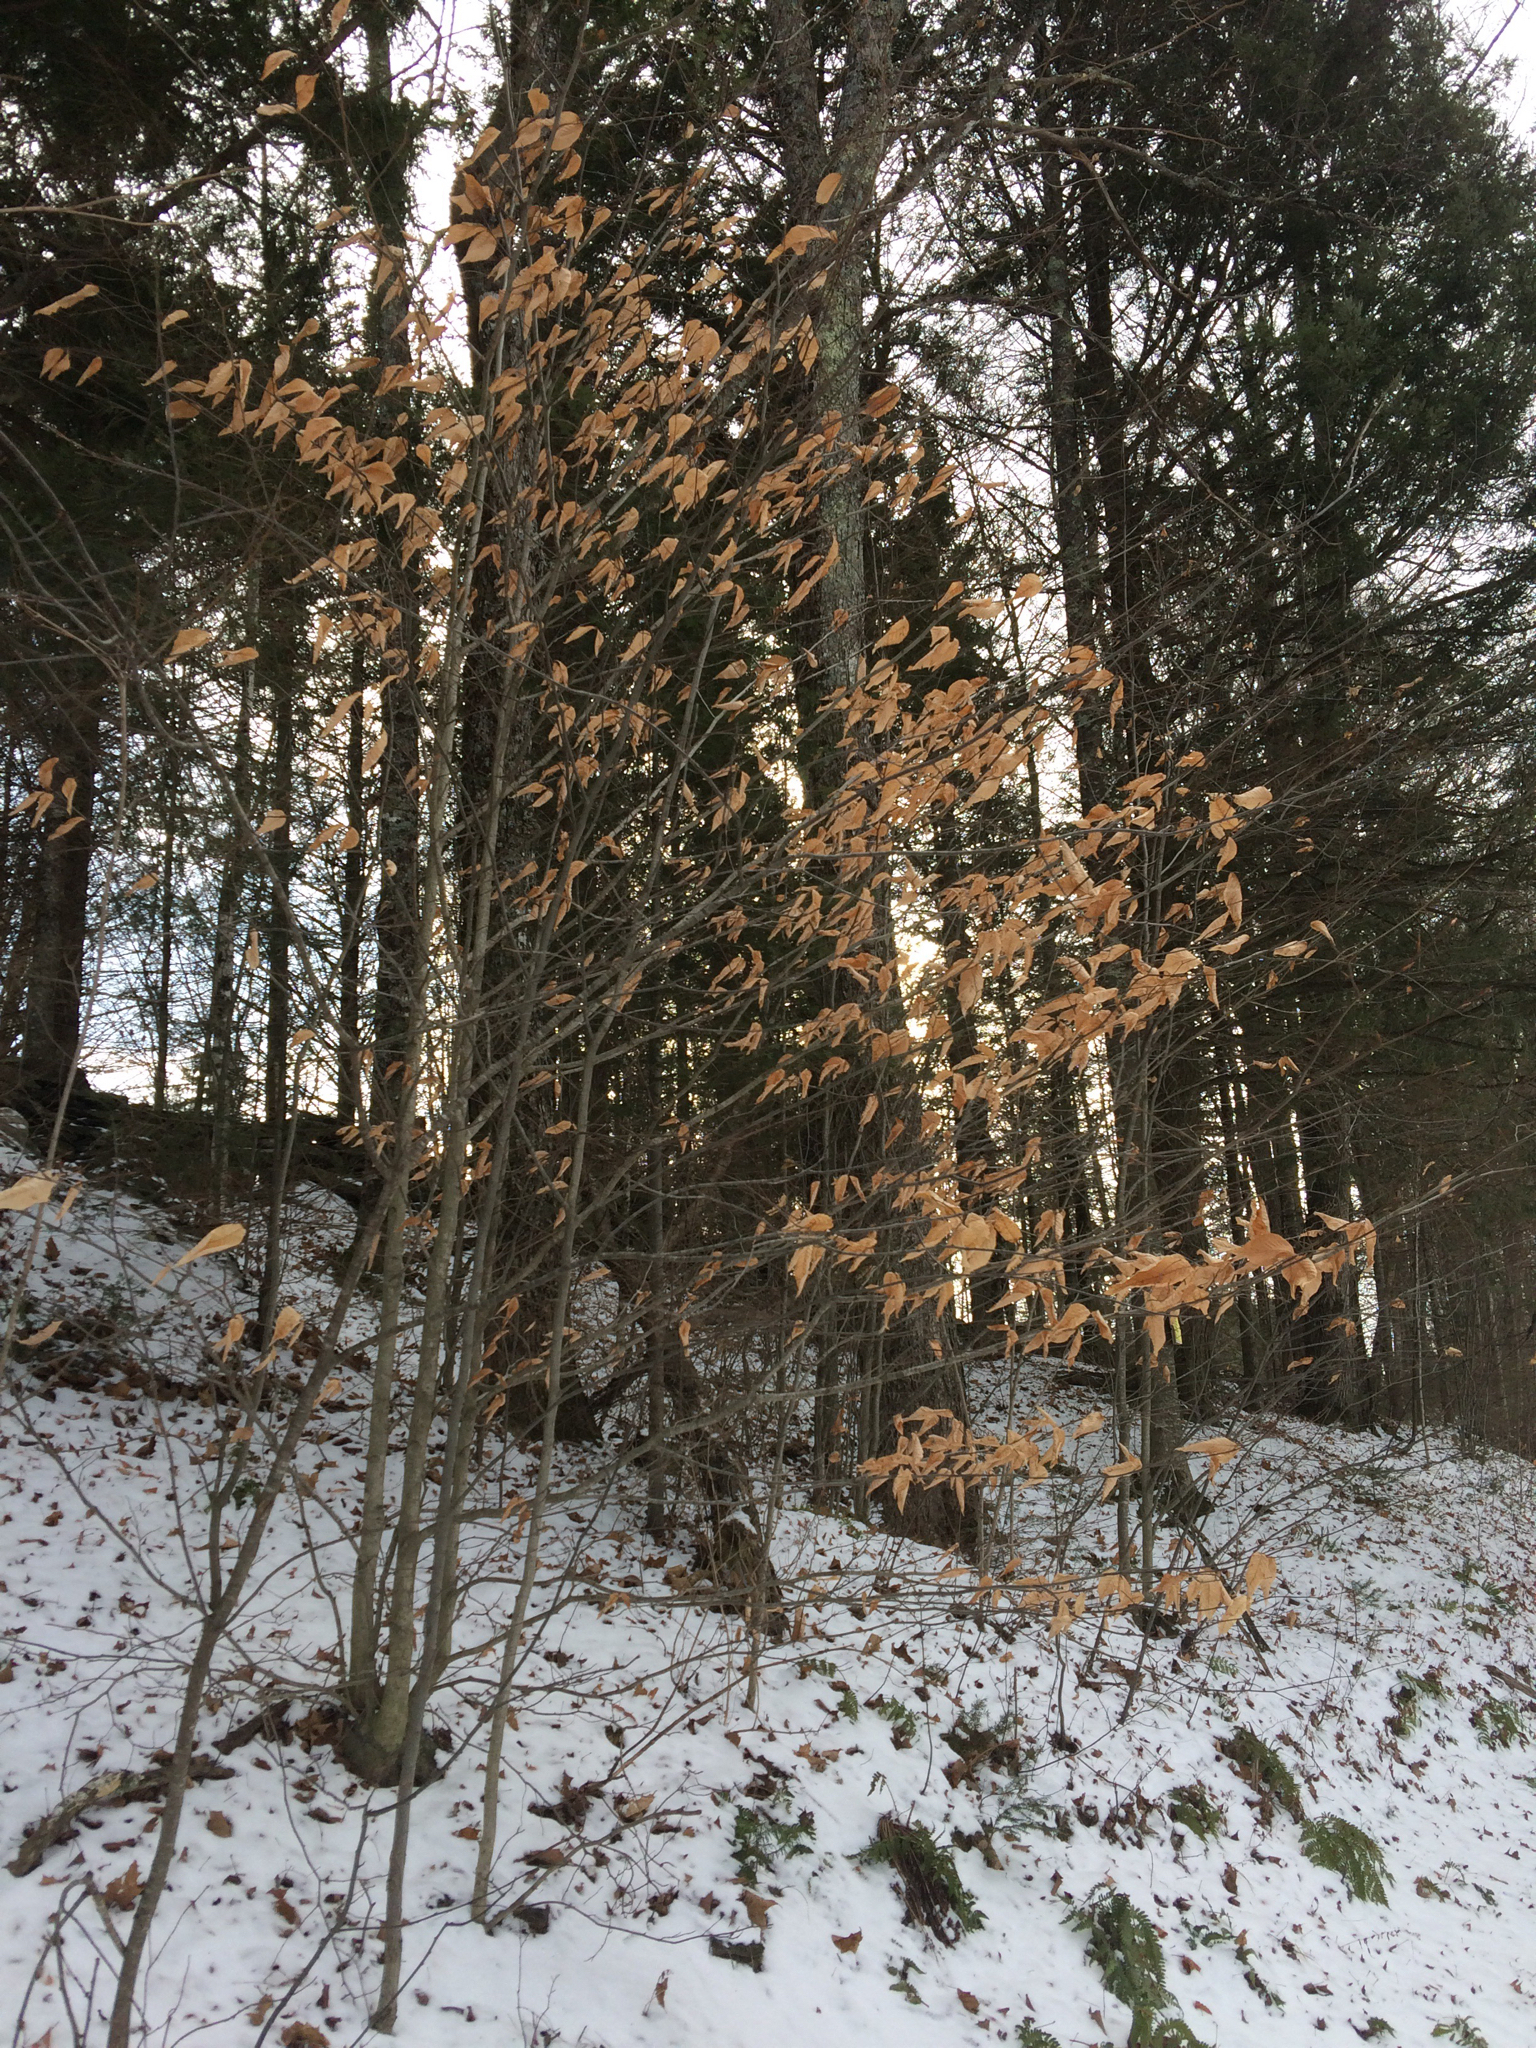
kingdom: Plantae
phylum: Tracheophyta
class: Magnoliopsida
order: Fagales
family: Fagaceae
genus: Fagus
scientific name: Fagus grandifolia
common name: American beech
